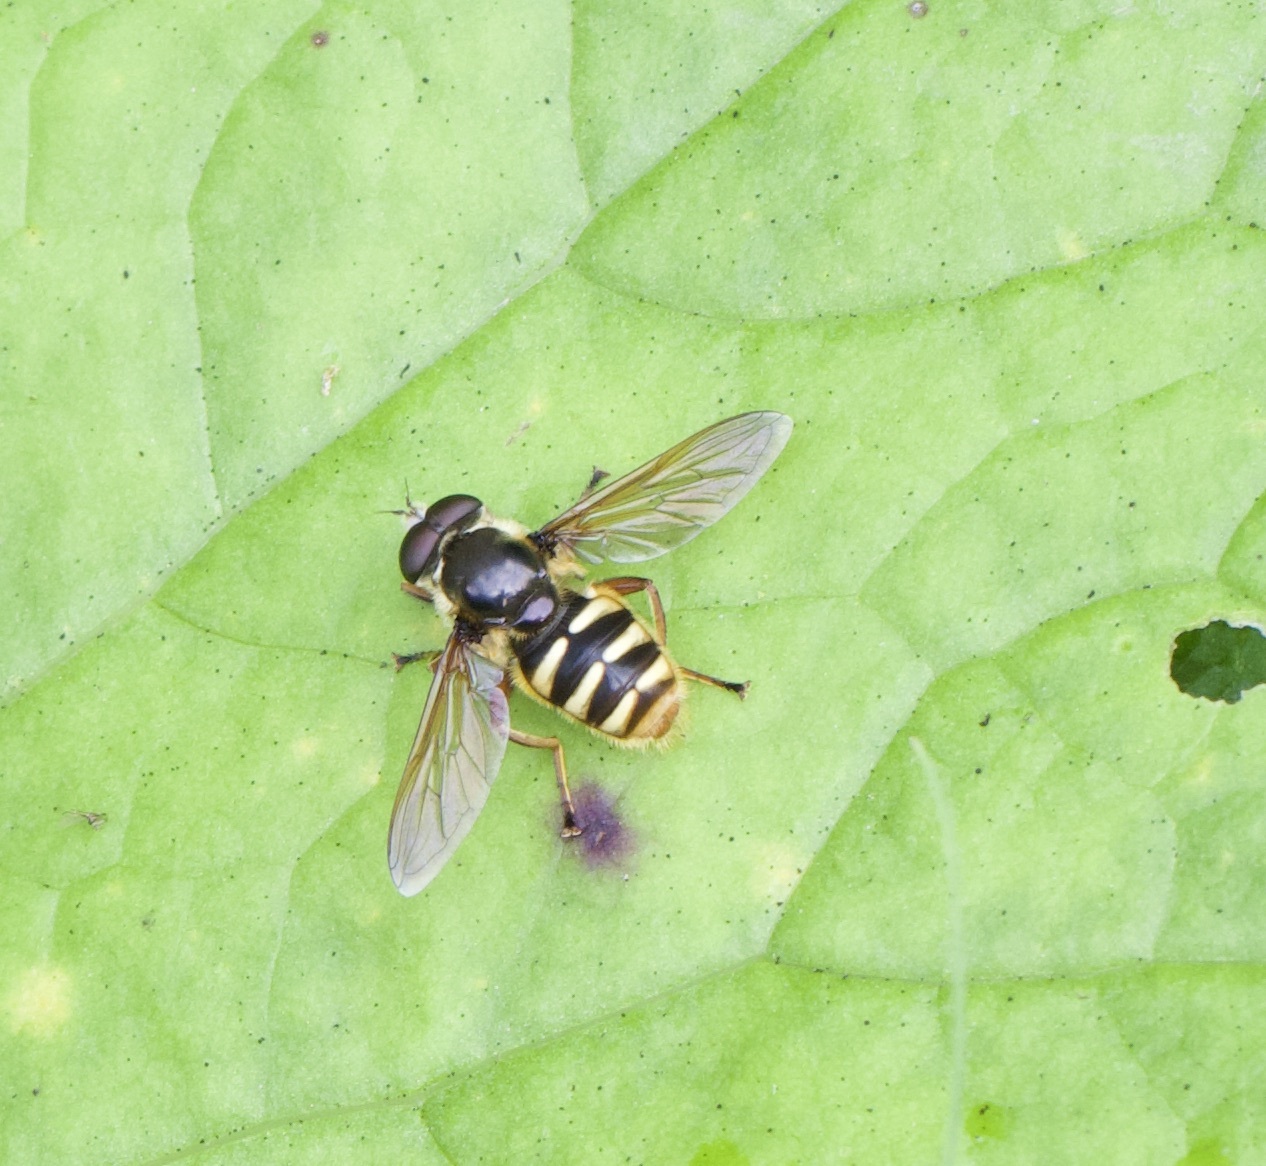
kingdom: Animalia
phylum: Arthropoda
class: Insecta
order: Diptera
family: Syrphidae
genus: Sericomyia
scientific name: Sericomyia silentis
